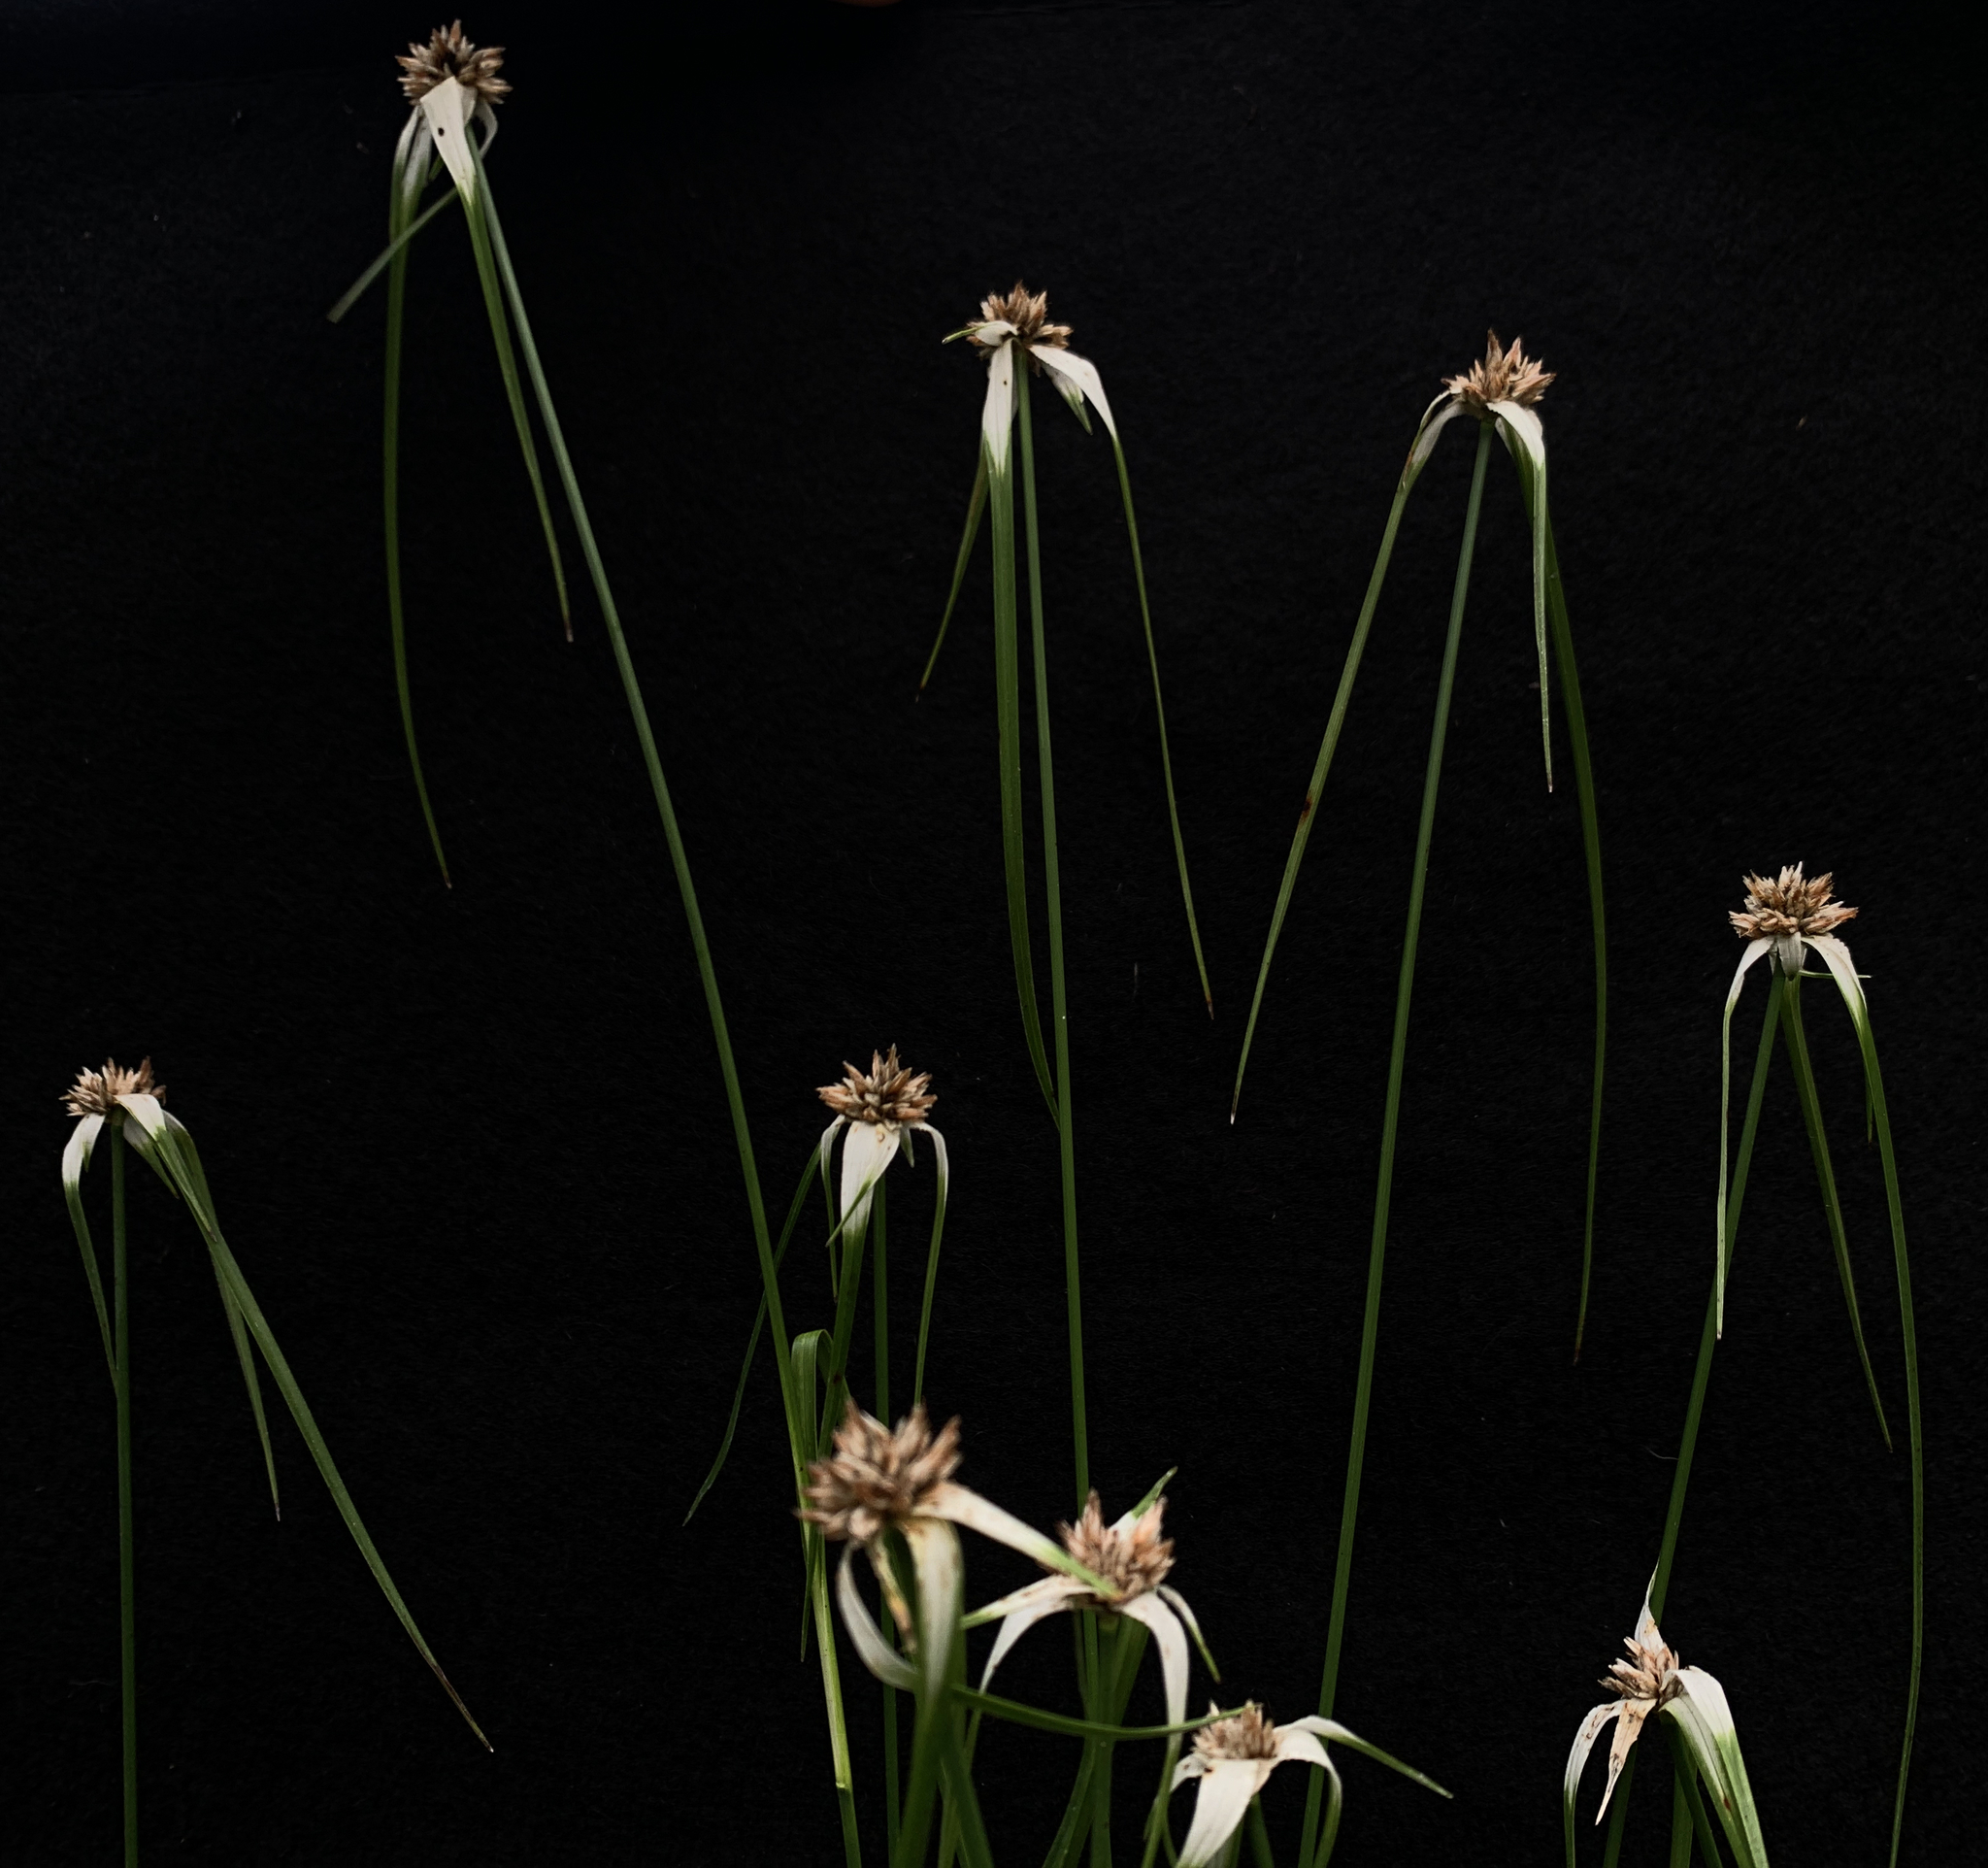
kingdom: Plantae
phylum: Tracheophyta
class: Liliopsida
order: Poales
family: Cyperaceae
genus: Rhynchospora
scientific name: Rhynchospora colorata
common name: Star sedge
